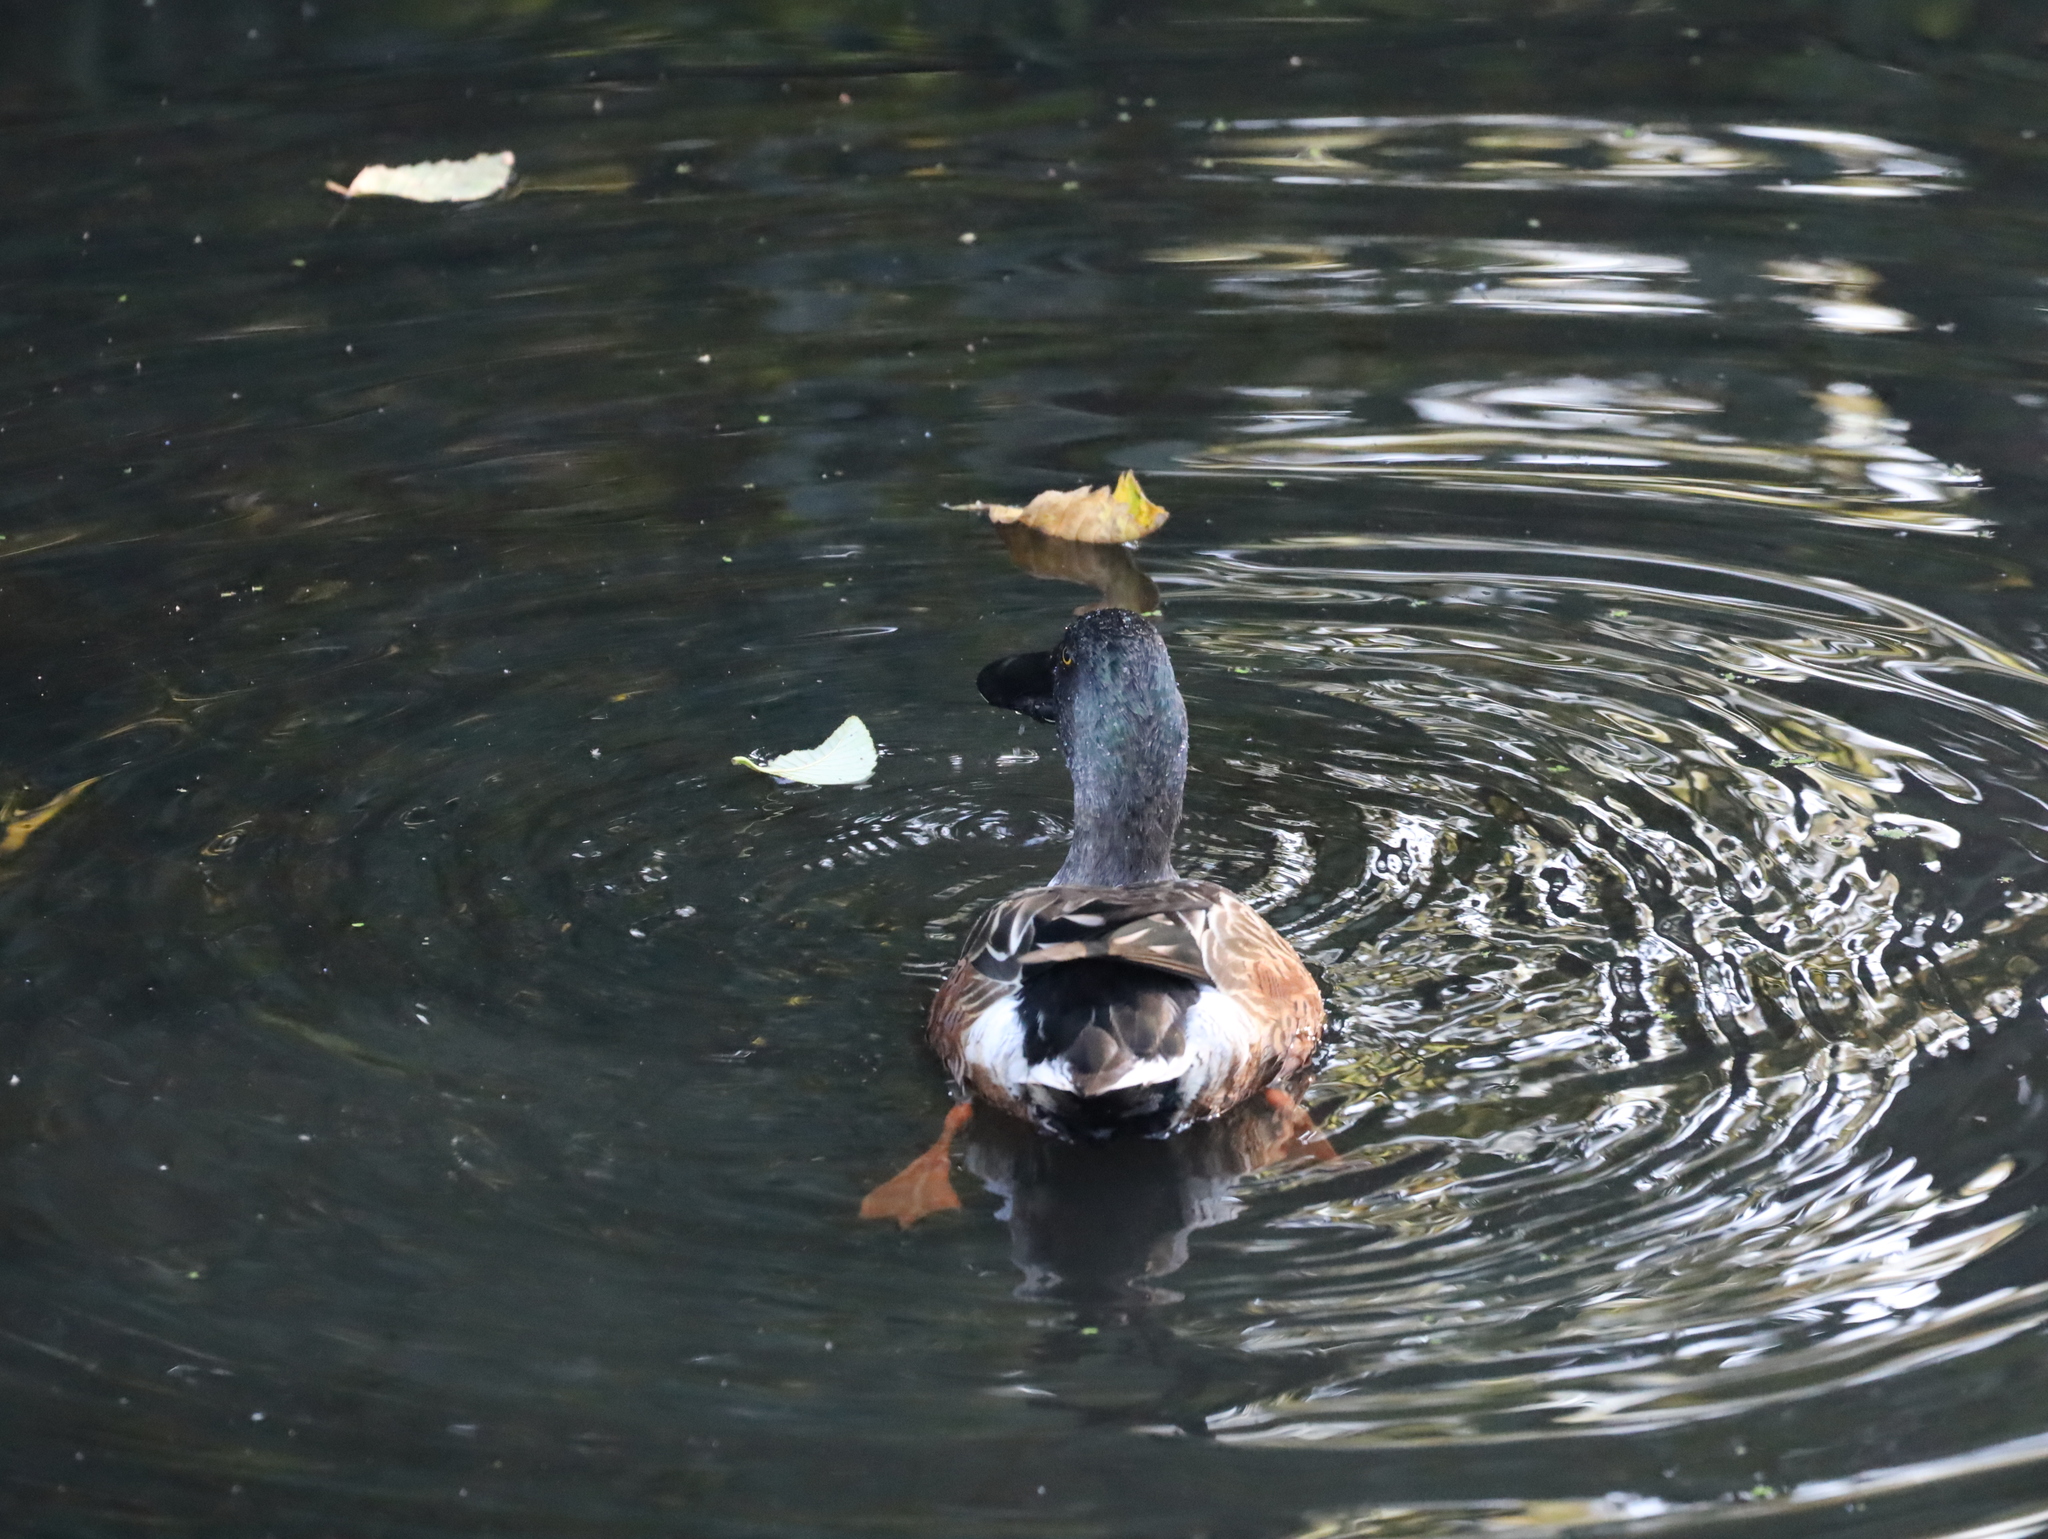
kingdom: Animalia
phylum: Chordata
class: Aves
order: Anseriformes
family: Anatidae
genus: Spatula
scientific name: Spatula clypeata
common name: Northern shoveler
